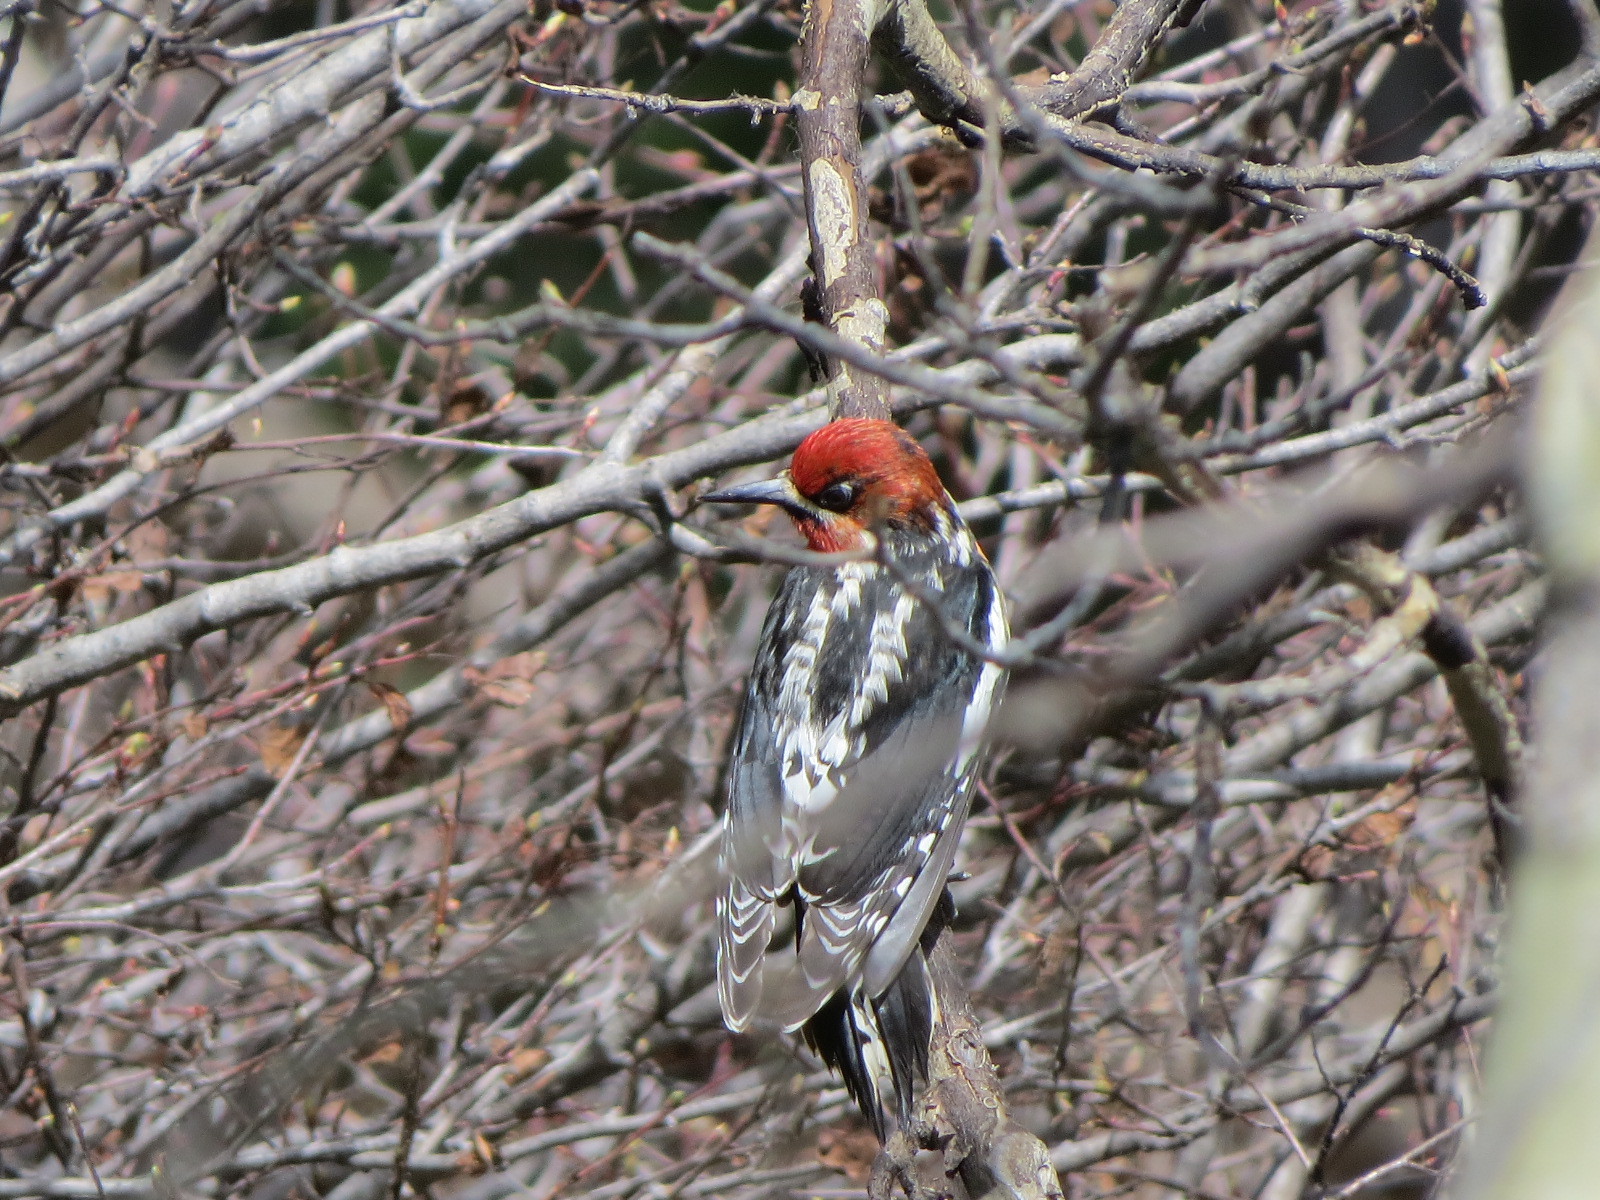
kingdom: Animalia
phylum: Chordata
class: Aves
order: Piciformes
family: Picidae
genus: Sphyrapicus
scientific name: Sphyrapicus ruber
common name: Red-breasted sapsucker
